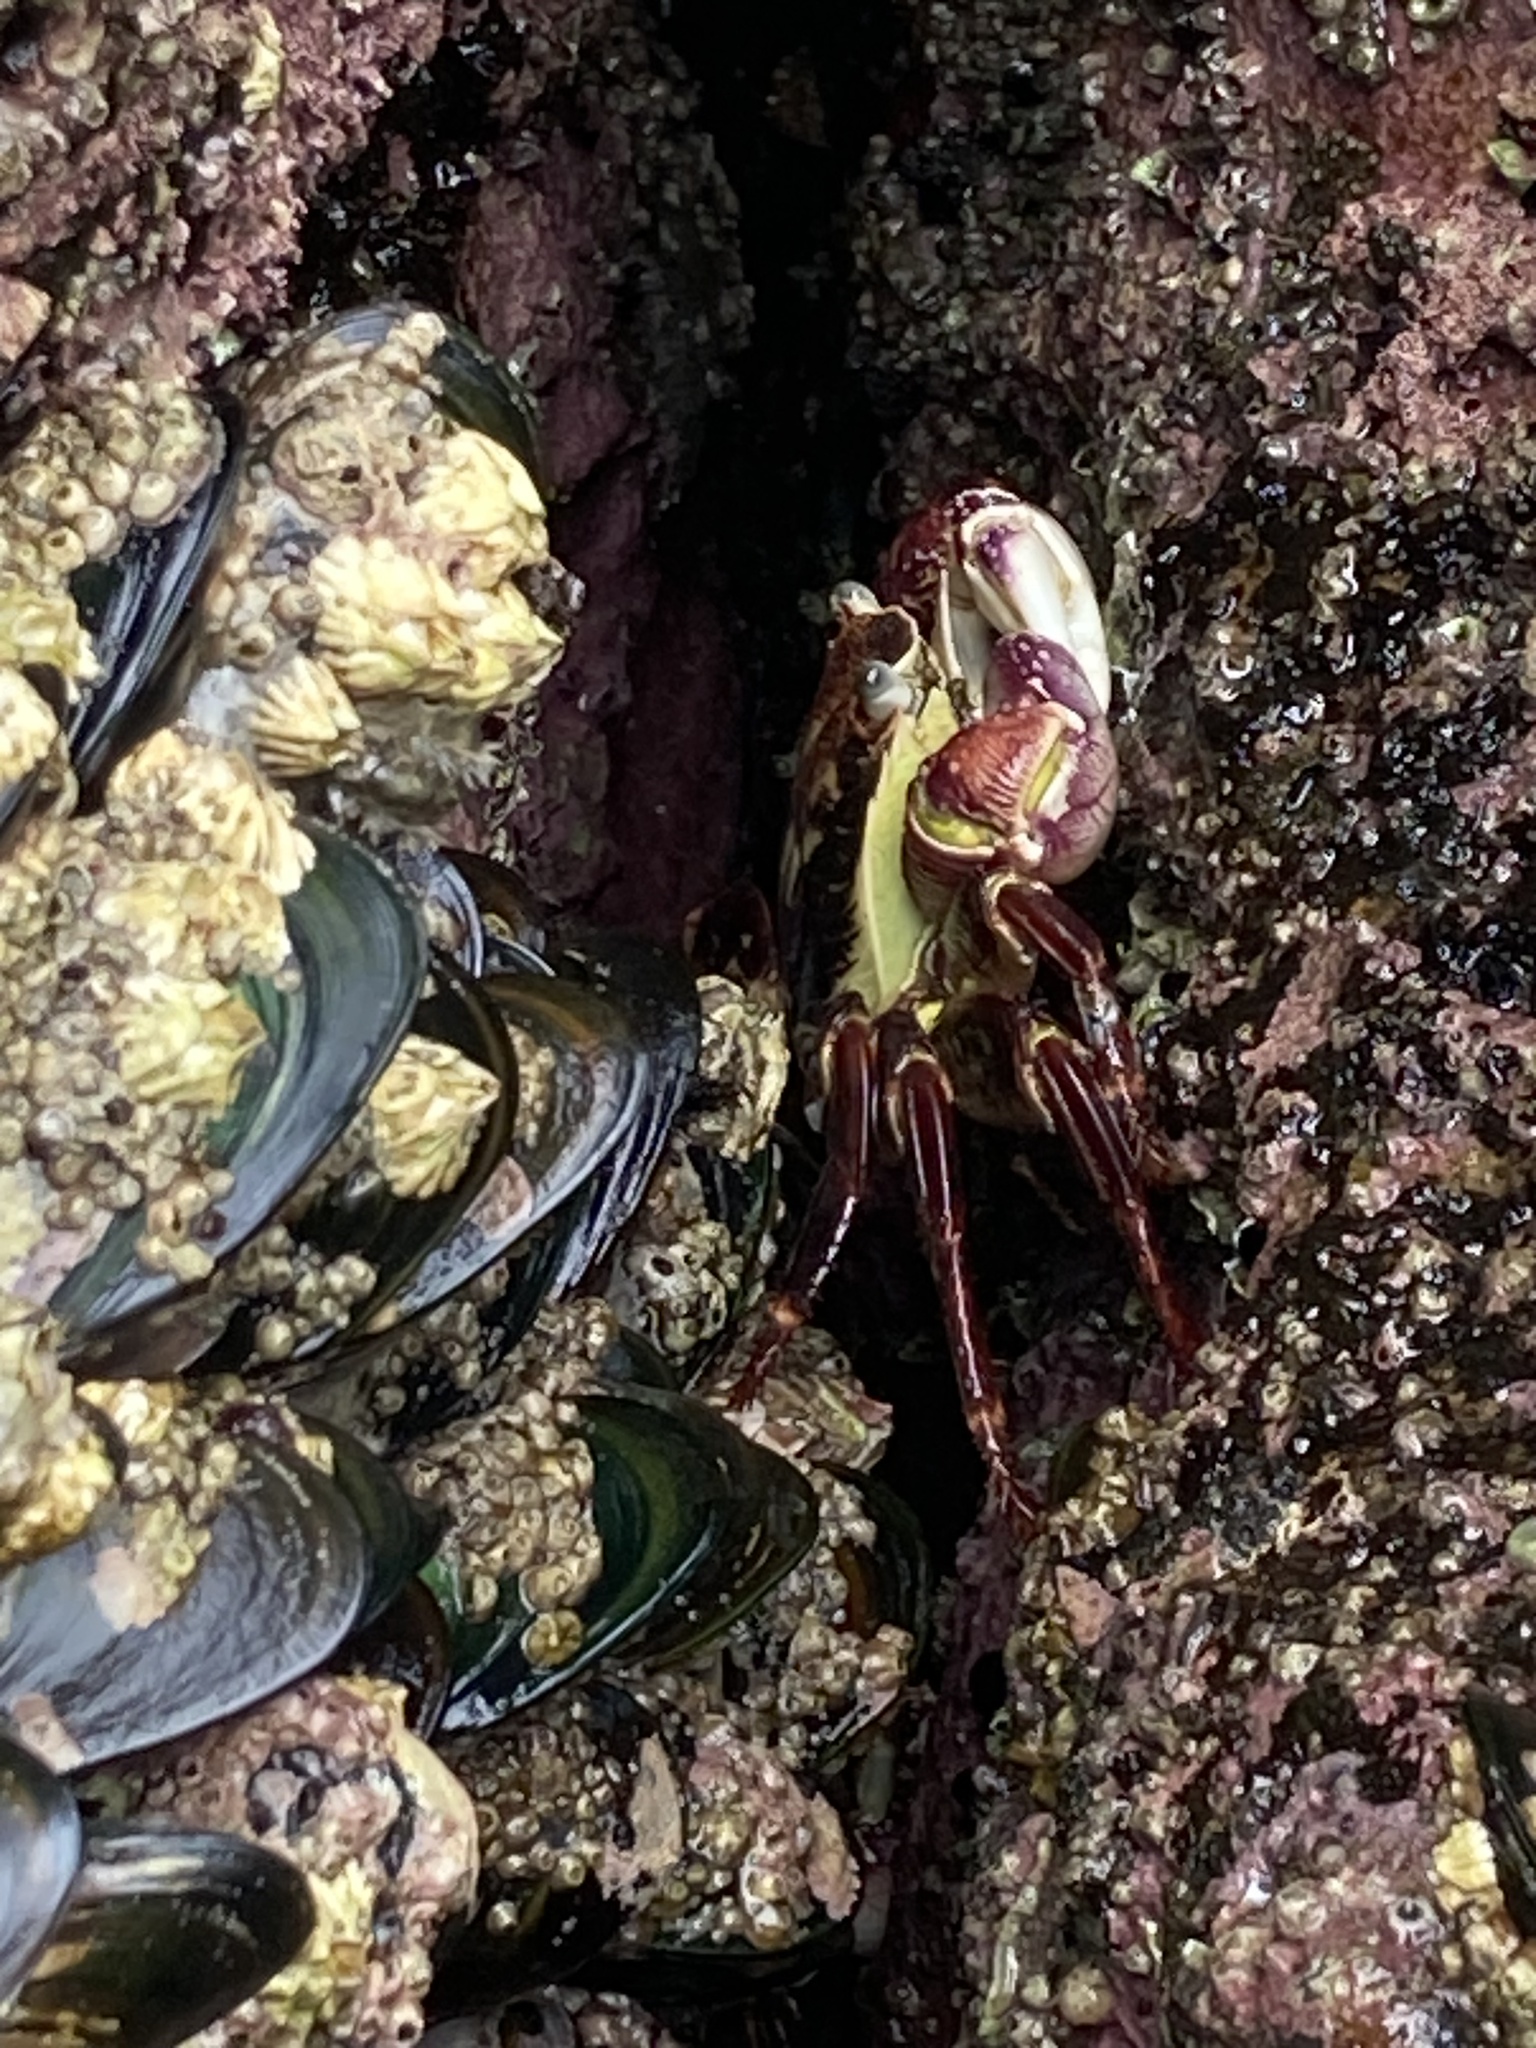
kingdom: Animalia
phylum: Arthropoda
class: Malacostraca
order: Decapoda
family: Grapsidae
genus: Leptograpsus
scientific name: Leptograpsus variegatus
